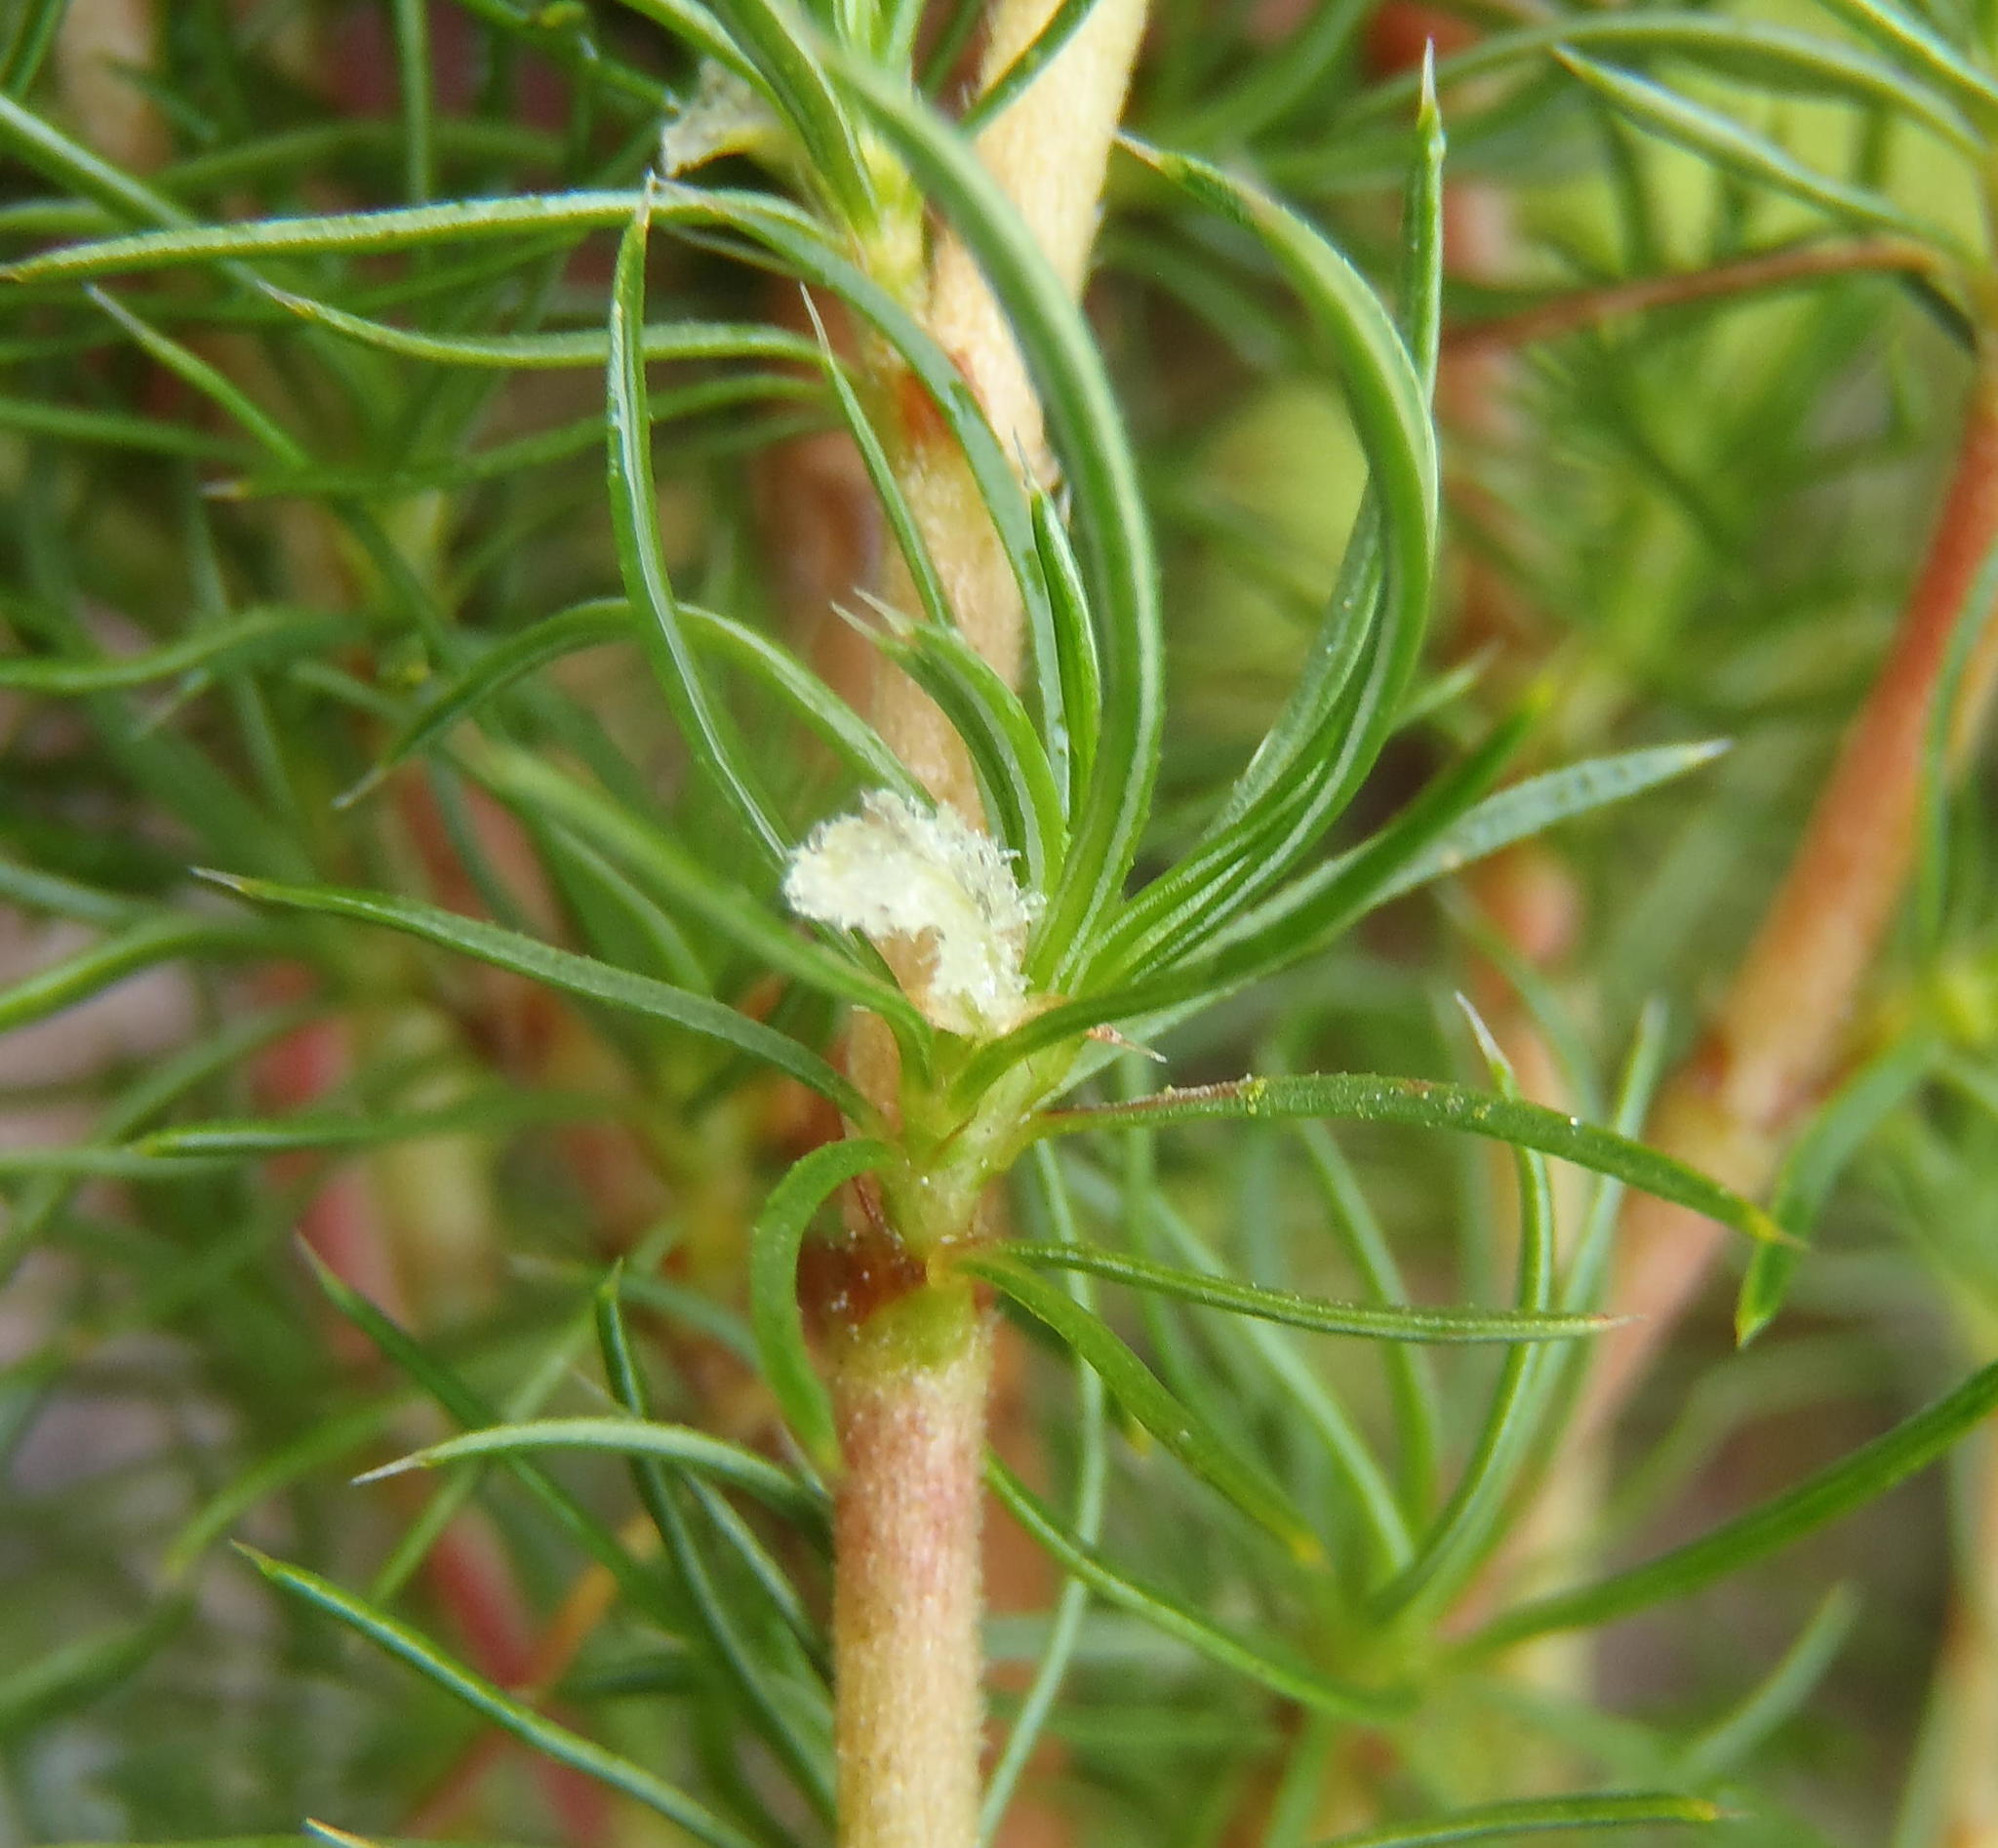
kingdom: Plantae
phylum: Tracheophyta
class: Magnoliopsida
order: Rosales
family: Rosaceae
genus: Cliffortia
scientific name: Cliffortia paucistaminea
